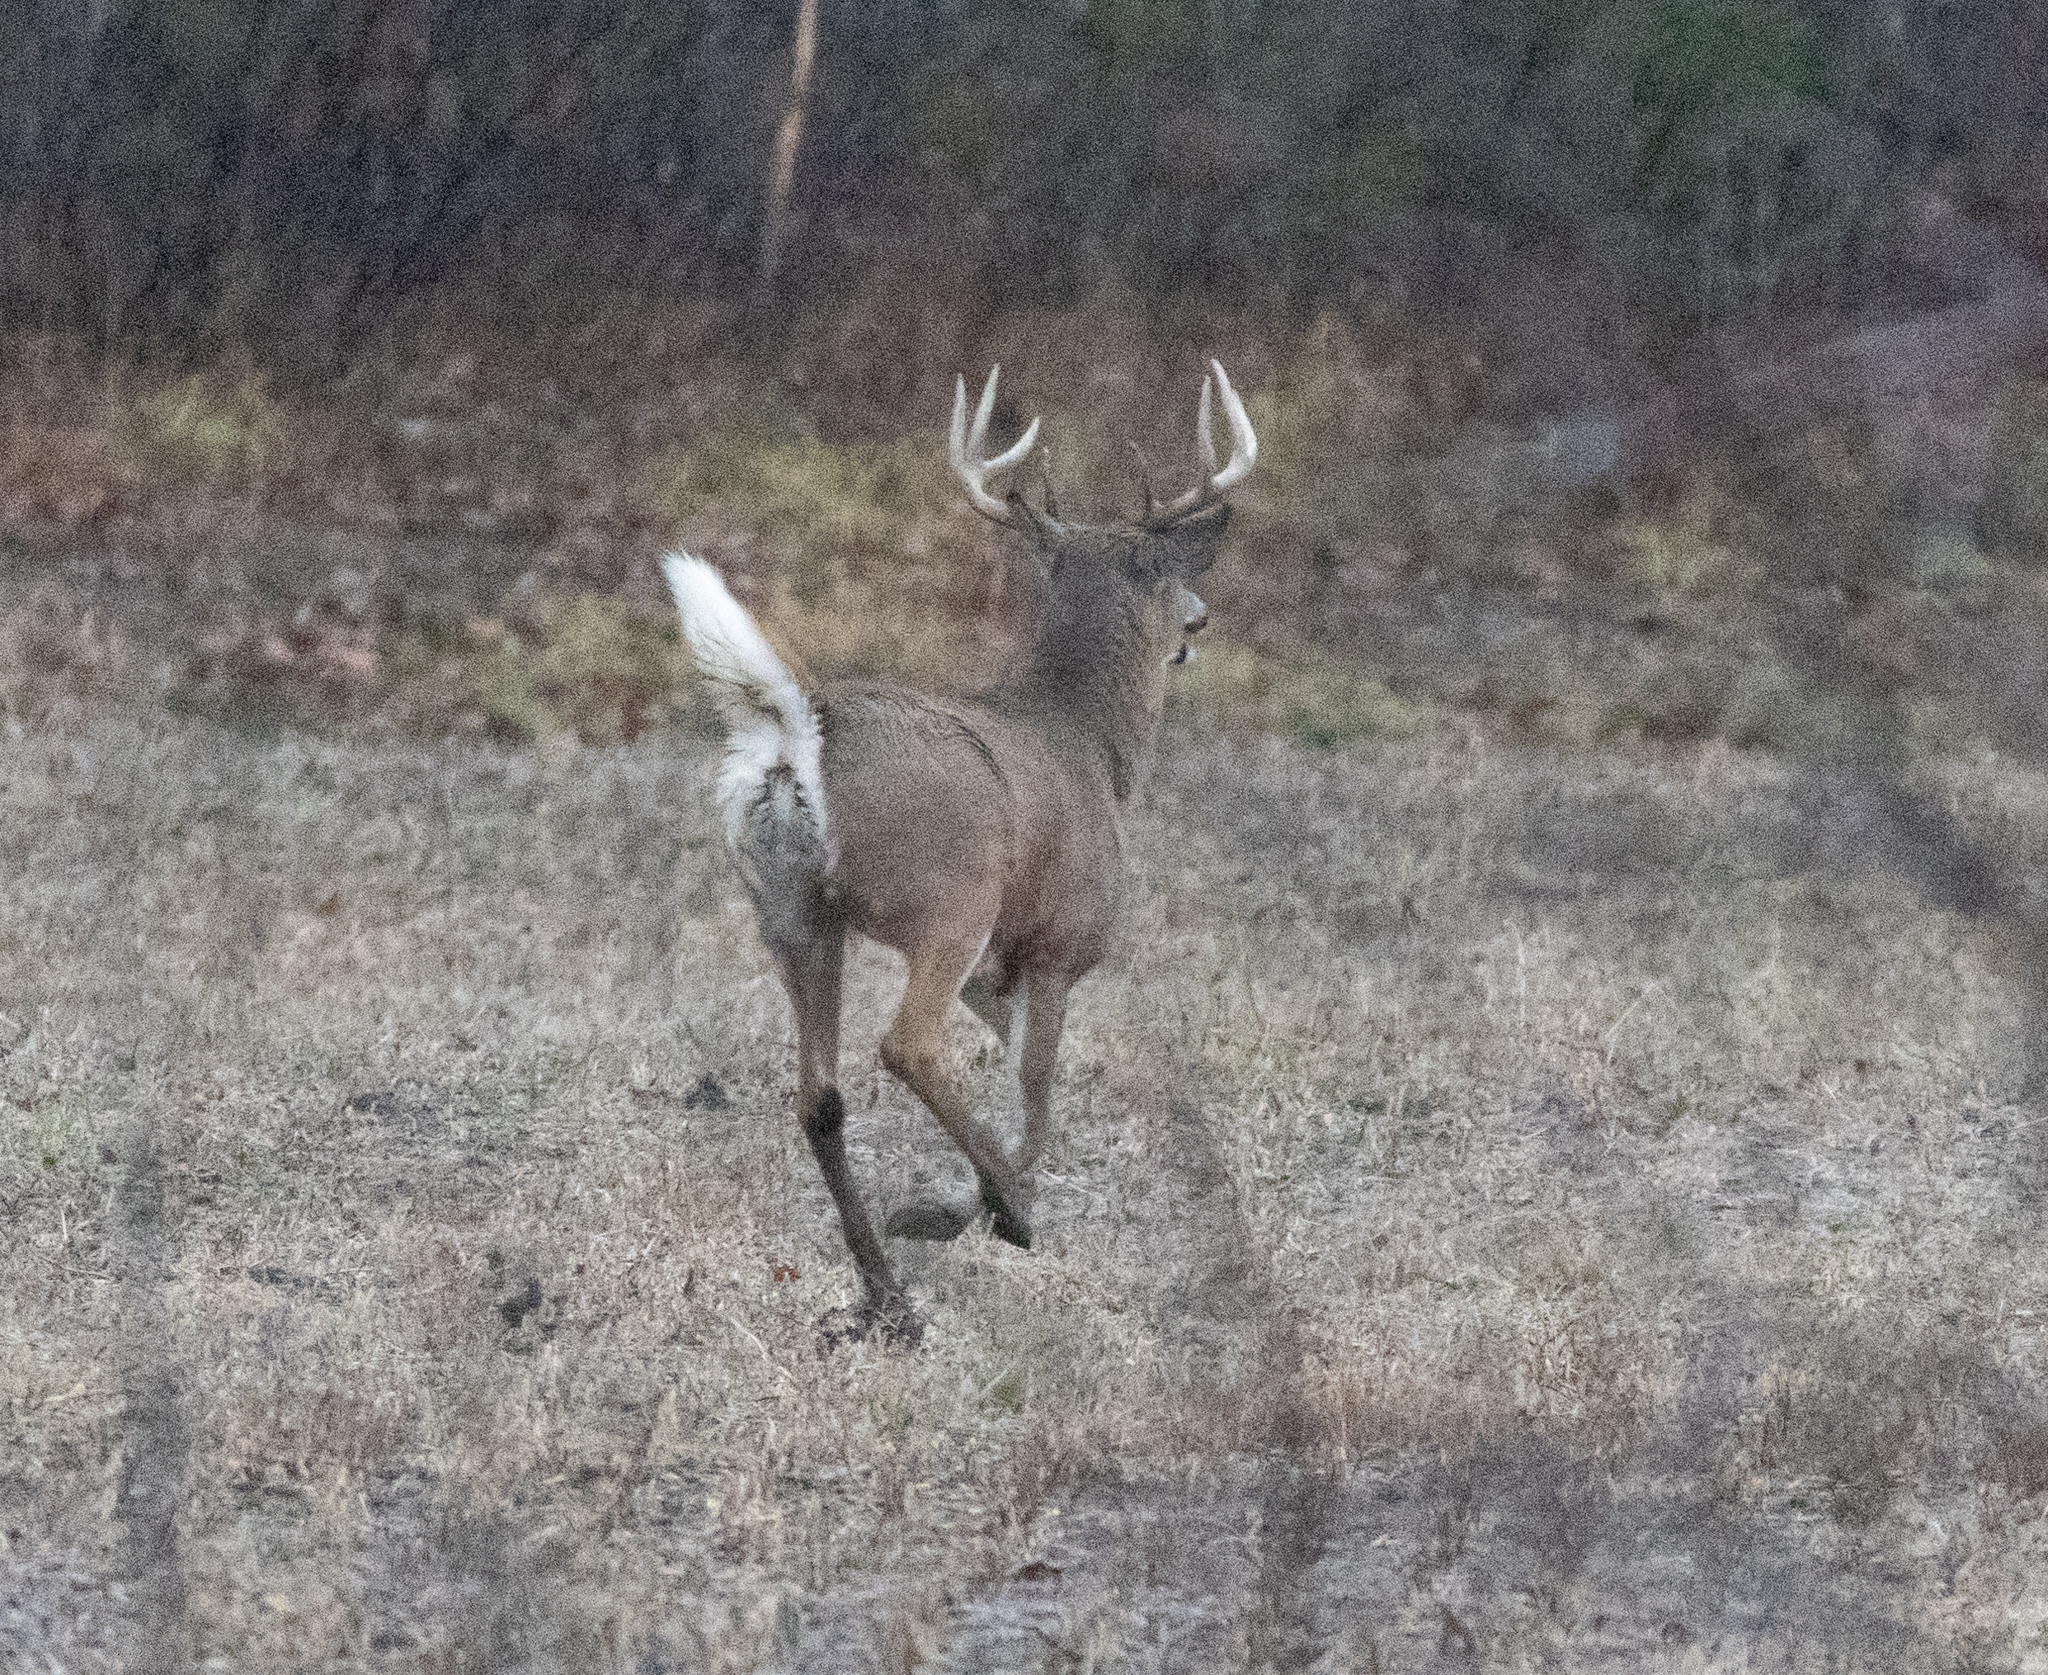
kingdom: Animalia
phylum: Chordata
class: Mammalia
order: Artiodactyla
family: Cervidae
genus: Odocoileus
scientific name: Odocoileus virginianus
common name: White-tailed deer
